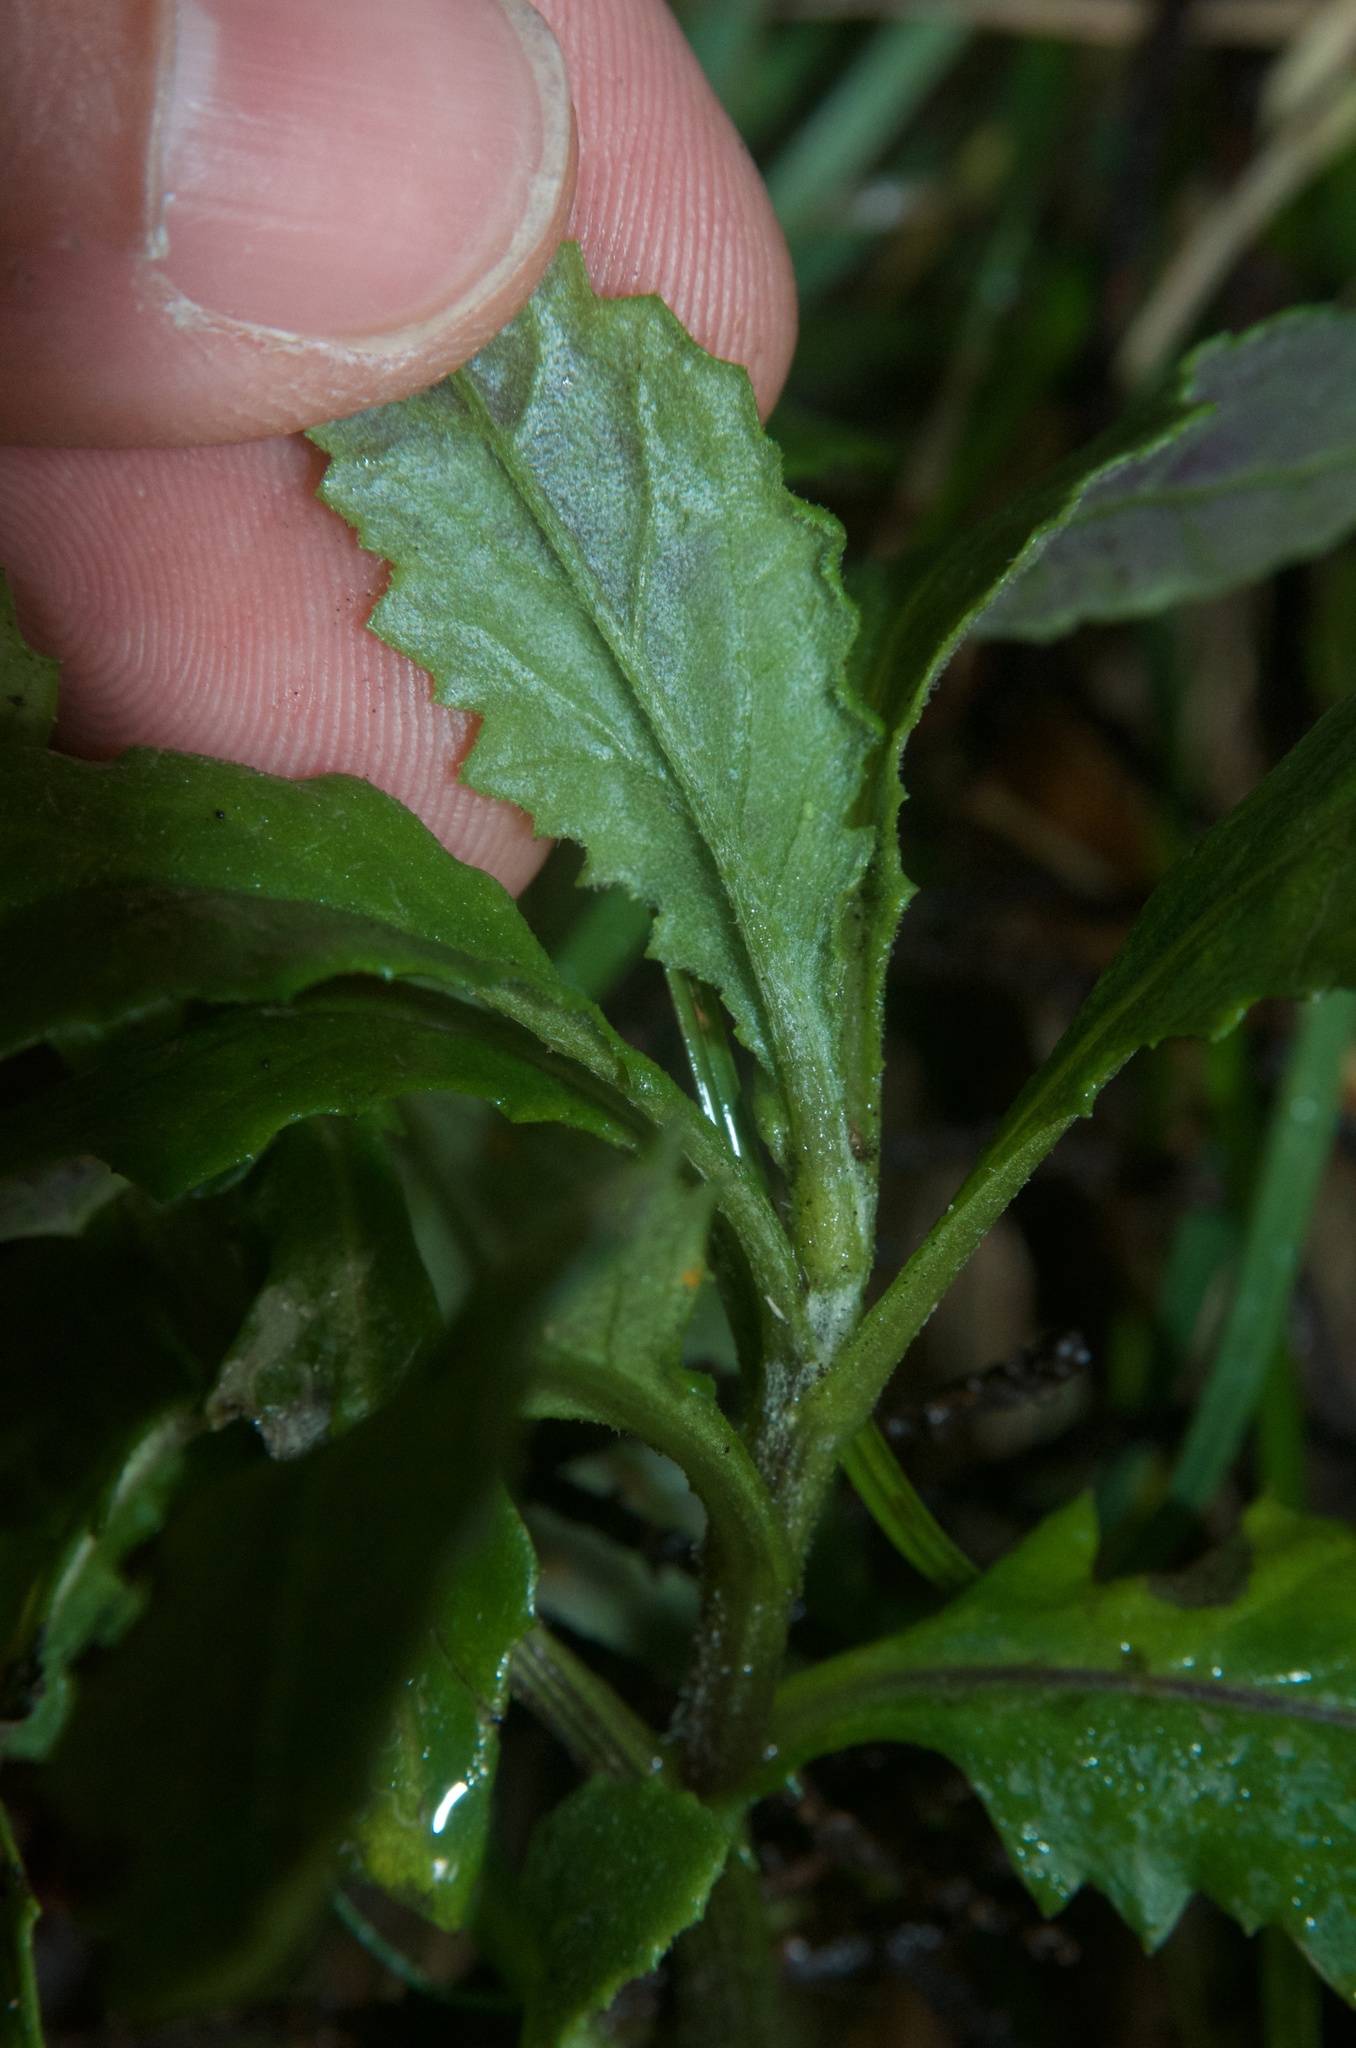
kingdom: Plantae
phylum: Tracheophyta
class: Magnoliopsida
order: Asterales
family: Asteraceae
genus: Senecio
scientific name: Senecio biserratus
